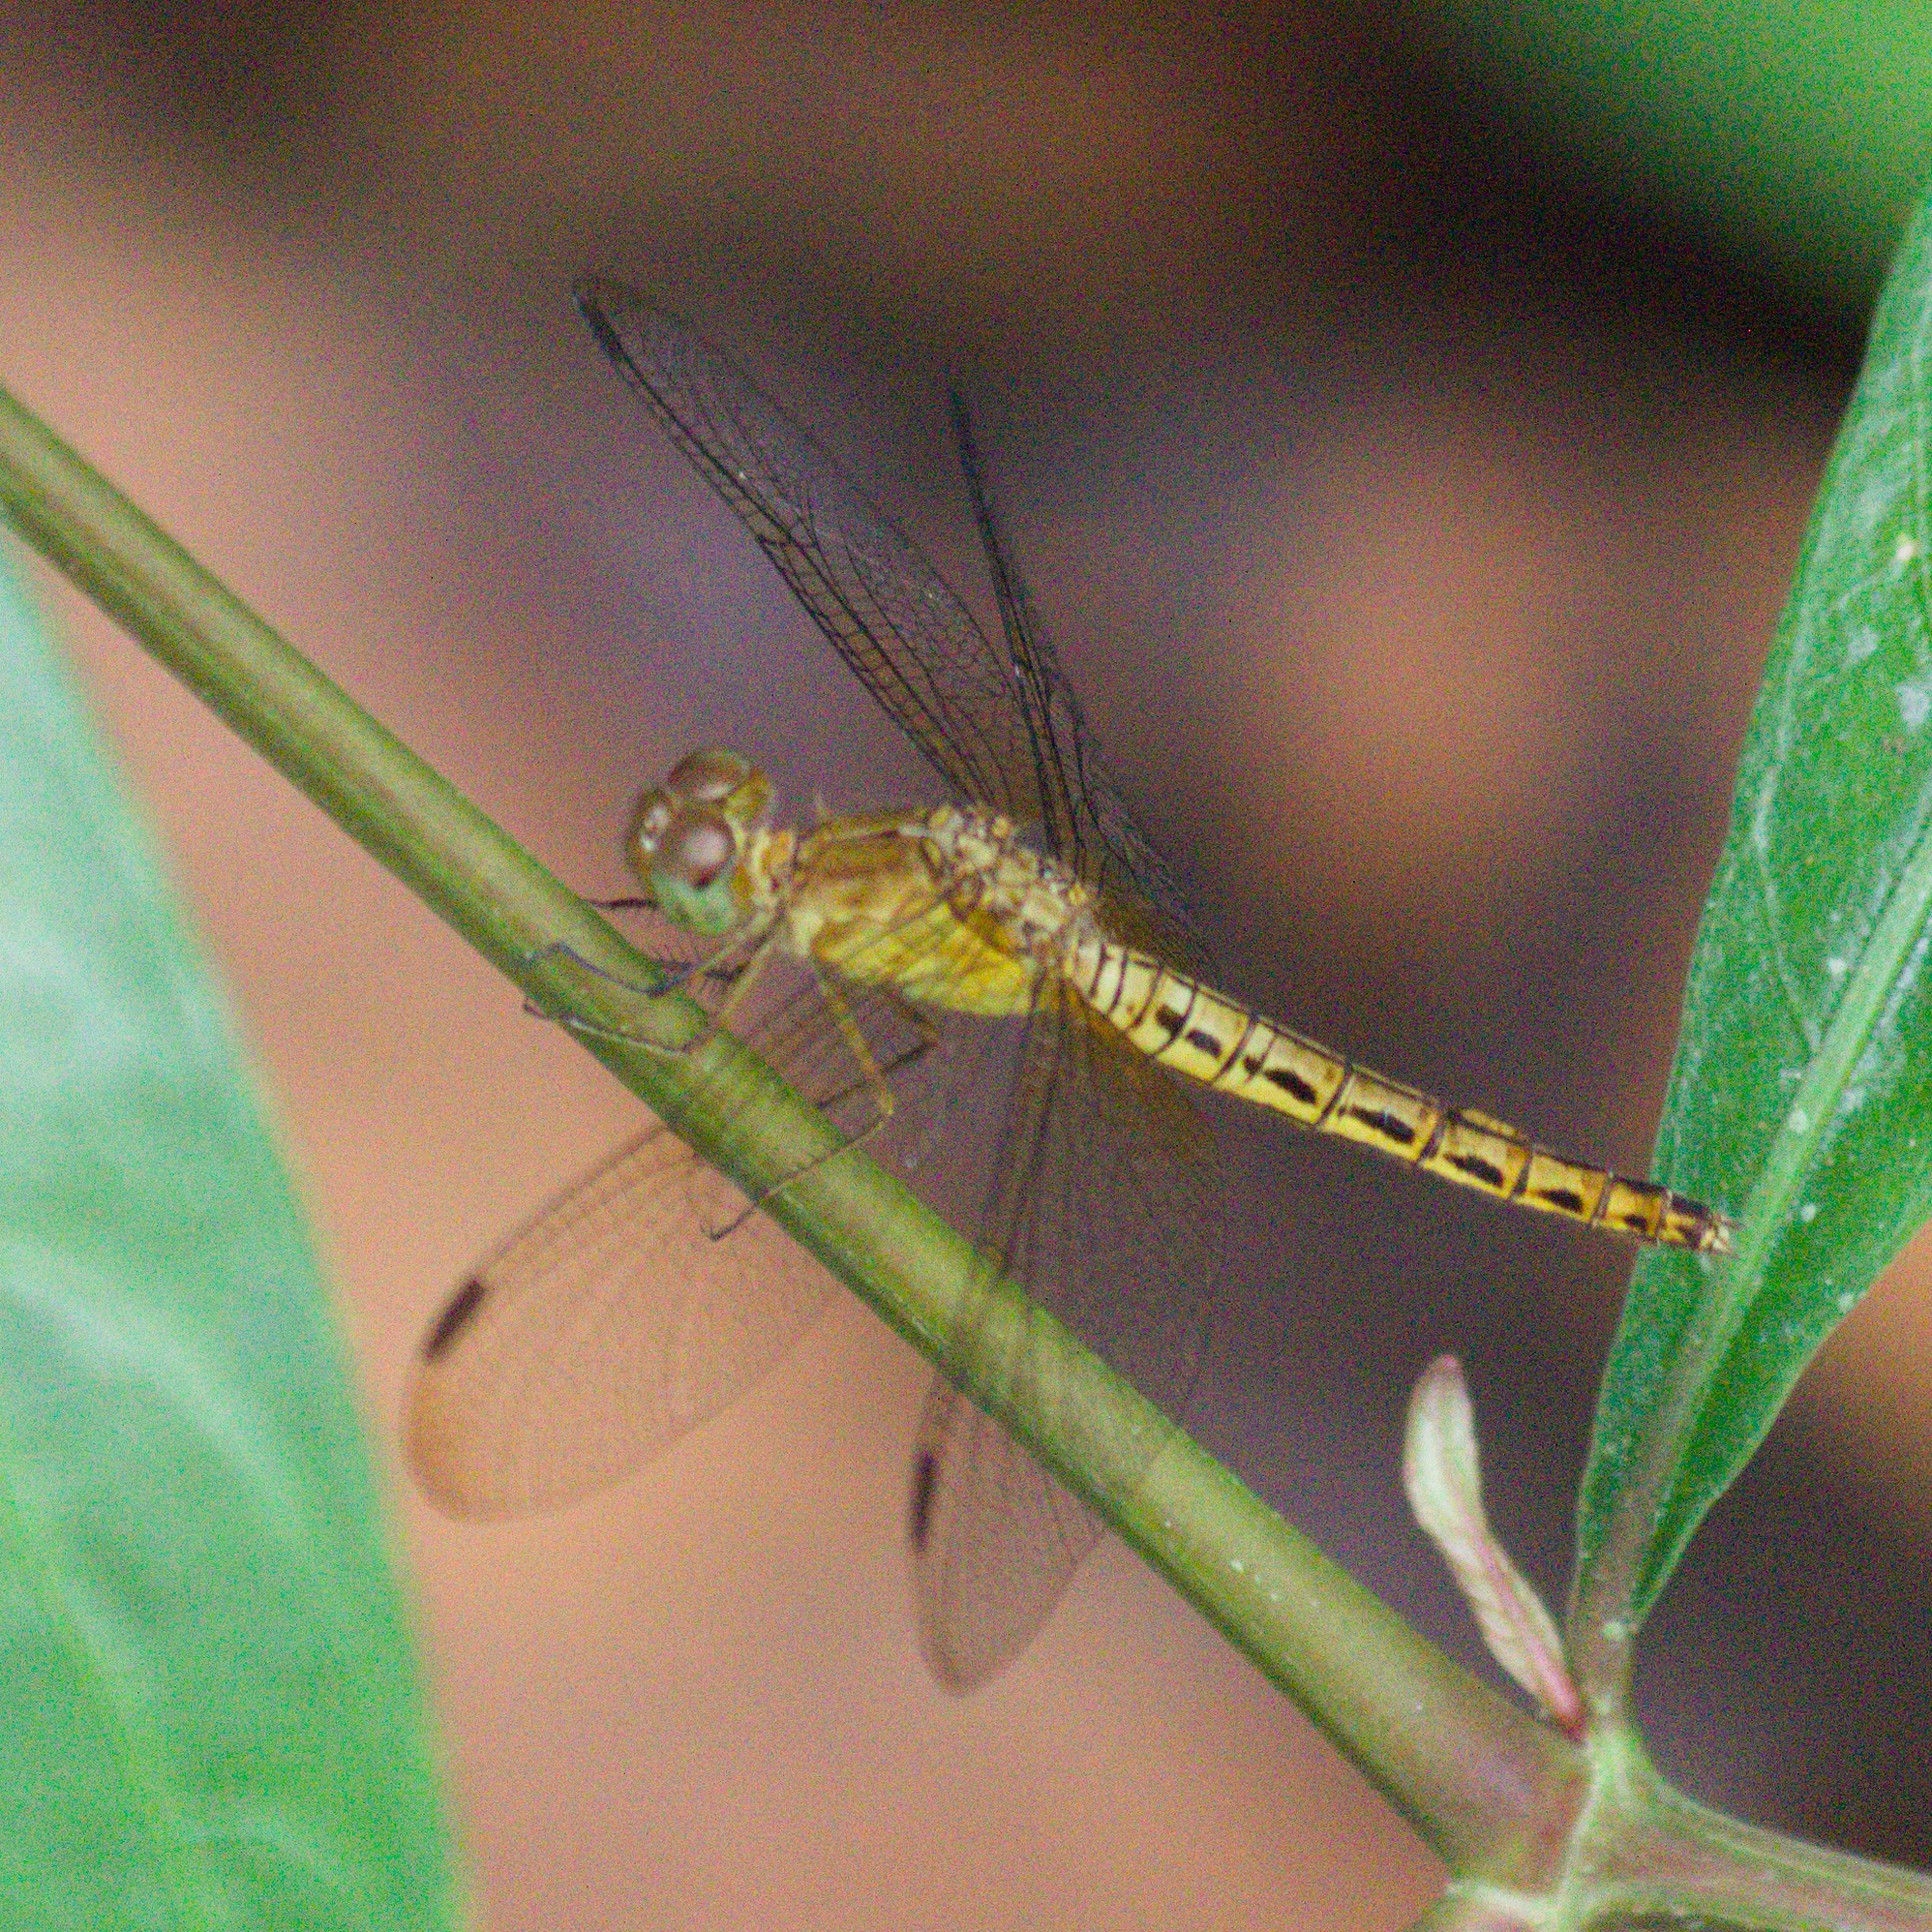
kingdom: Animalia
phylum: Arthropoda
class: Insecta
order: Odonata
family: Libellulidae
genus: Neurothemis
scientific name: Neurothemis fluctuans
